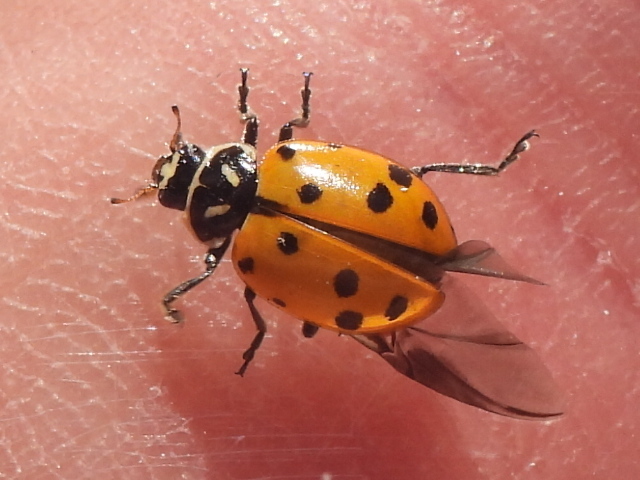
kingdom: Animalia
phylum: Arthropoda
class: Insecta
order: Coleoptera
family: Coccinellidae
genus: Hippodamia
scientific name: Hippodamia convergens
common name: Convergent lady beetle
